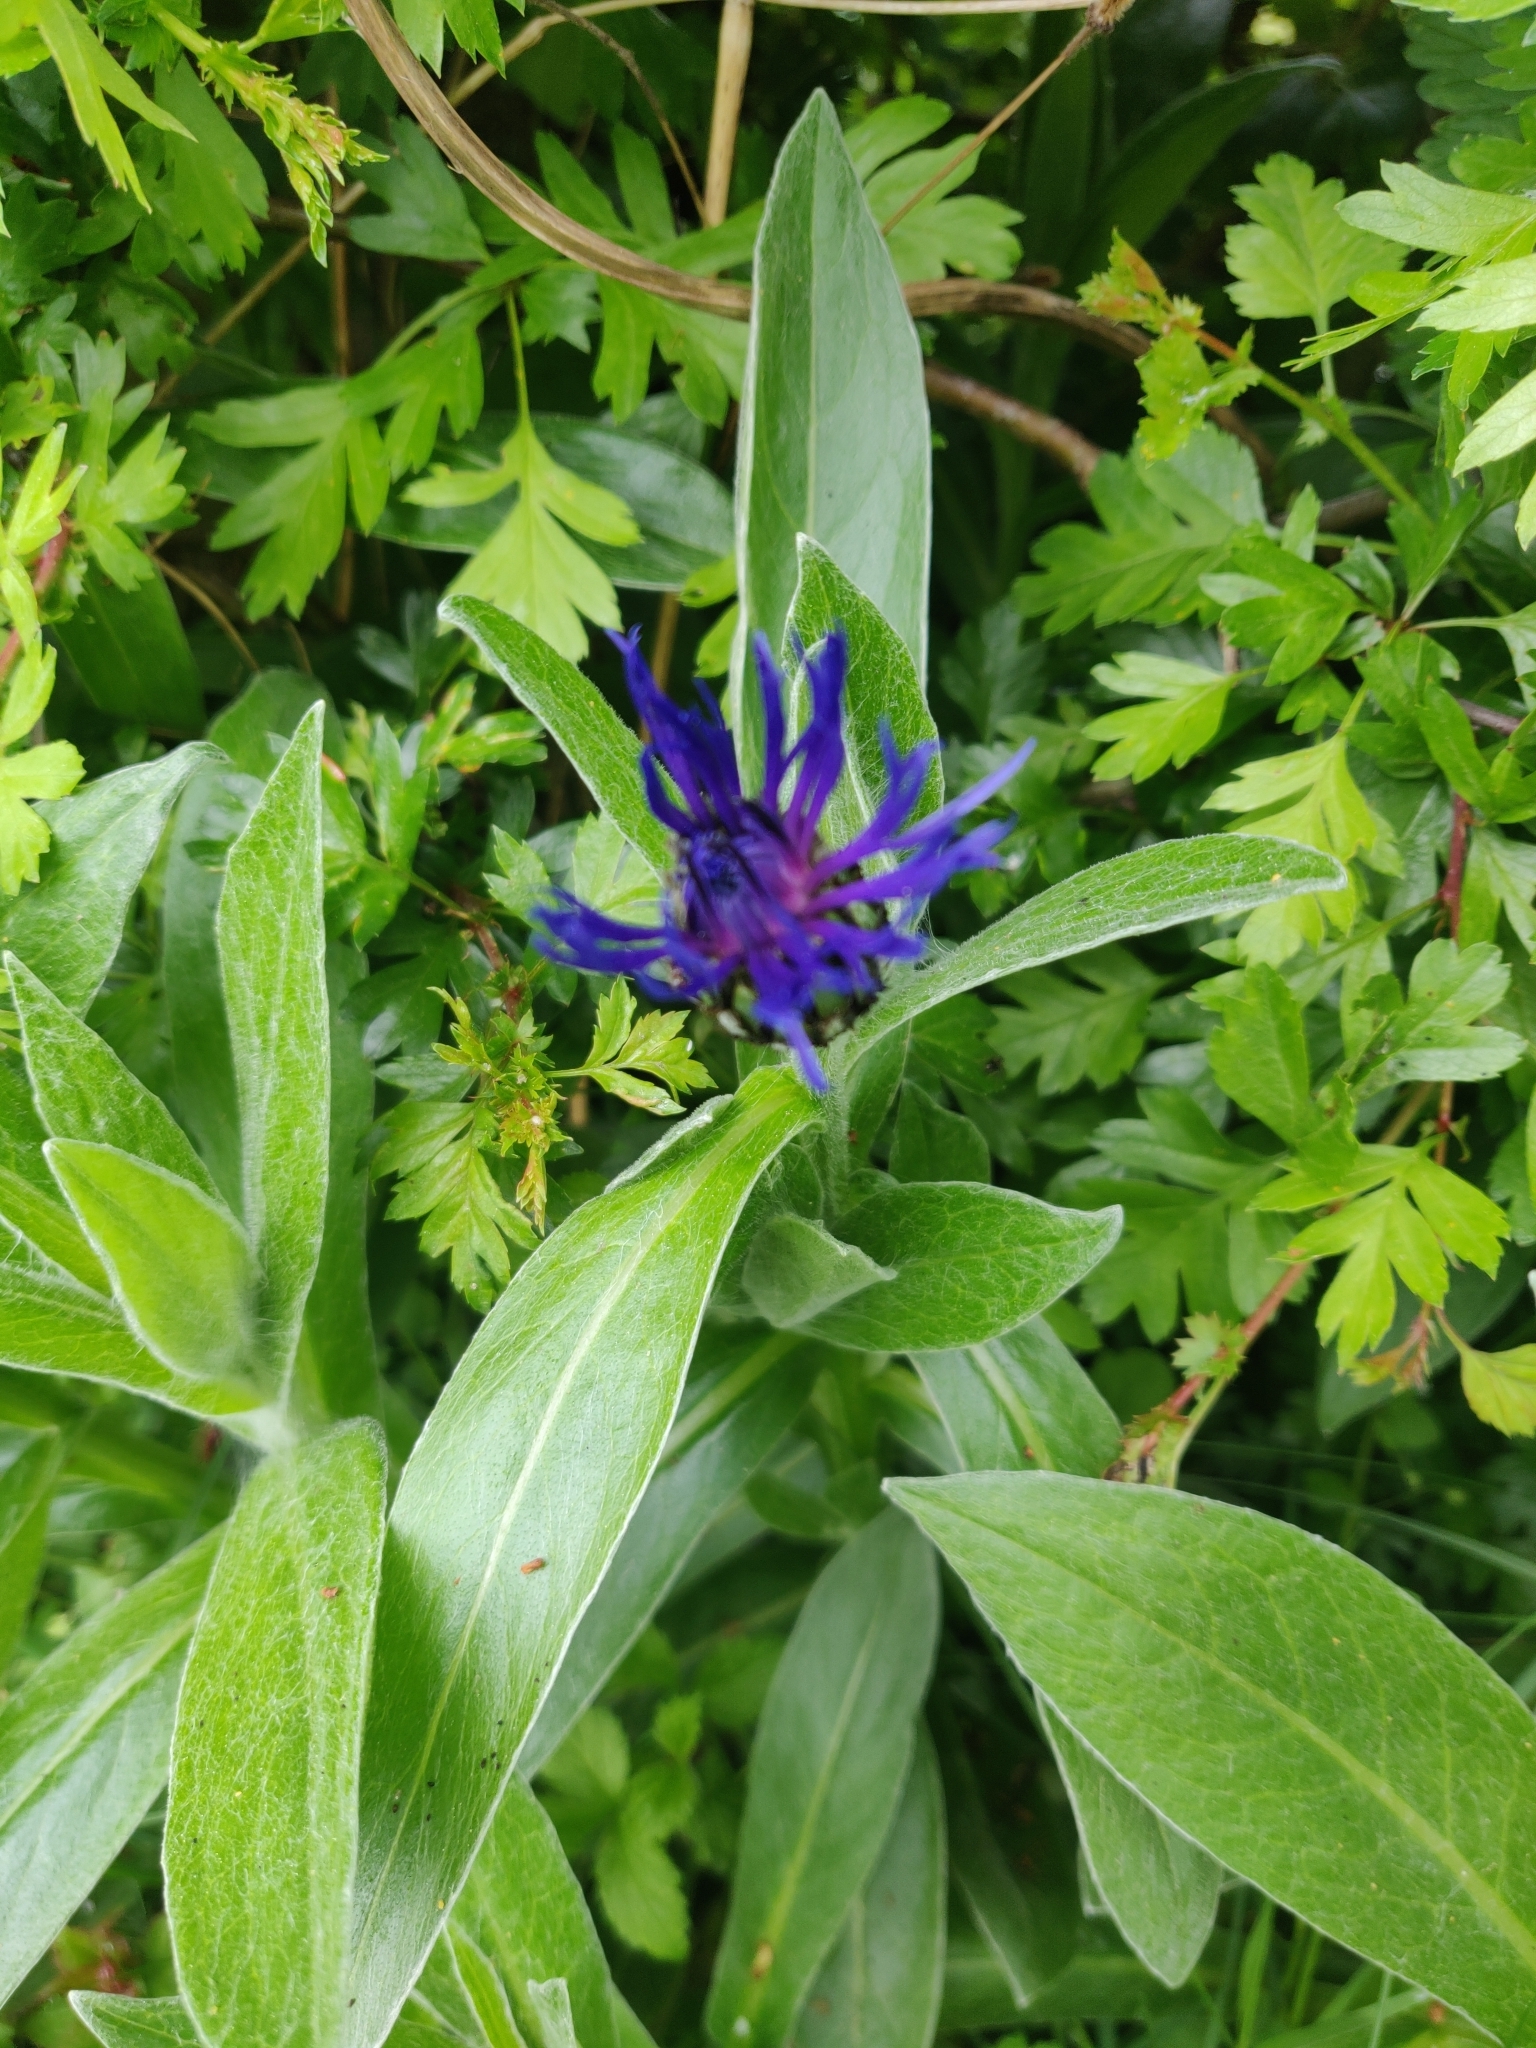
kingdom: Plantae
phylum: Tracheophyta
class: Magnoliopsida
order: Asterales
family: Asteraceae
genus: Centaurea
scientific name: Centaurea montana
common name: Perennial cornflower
